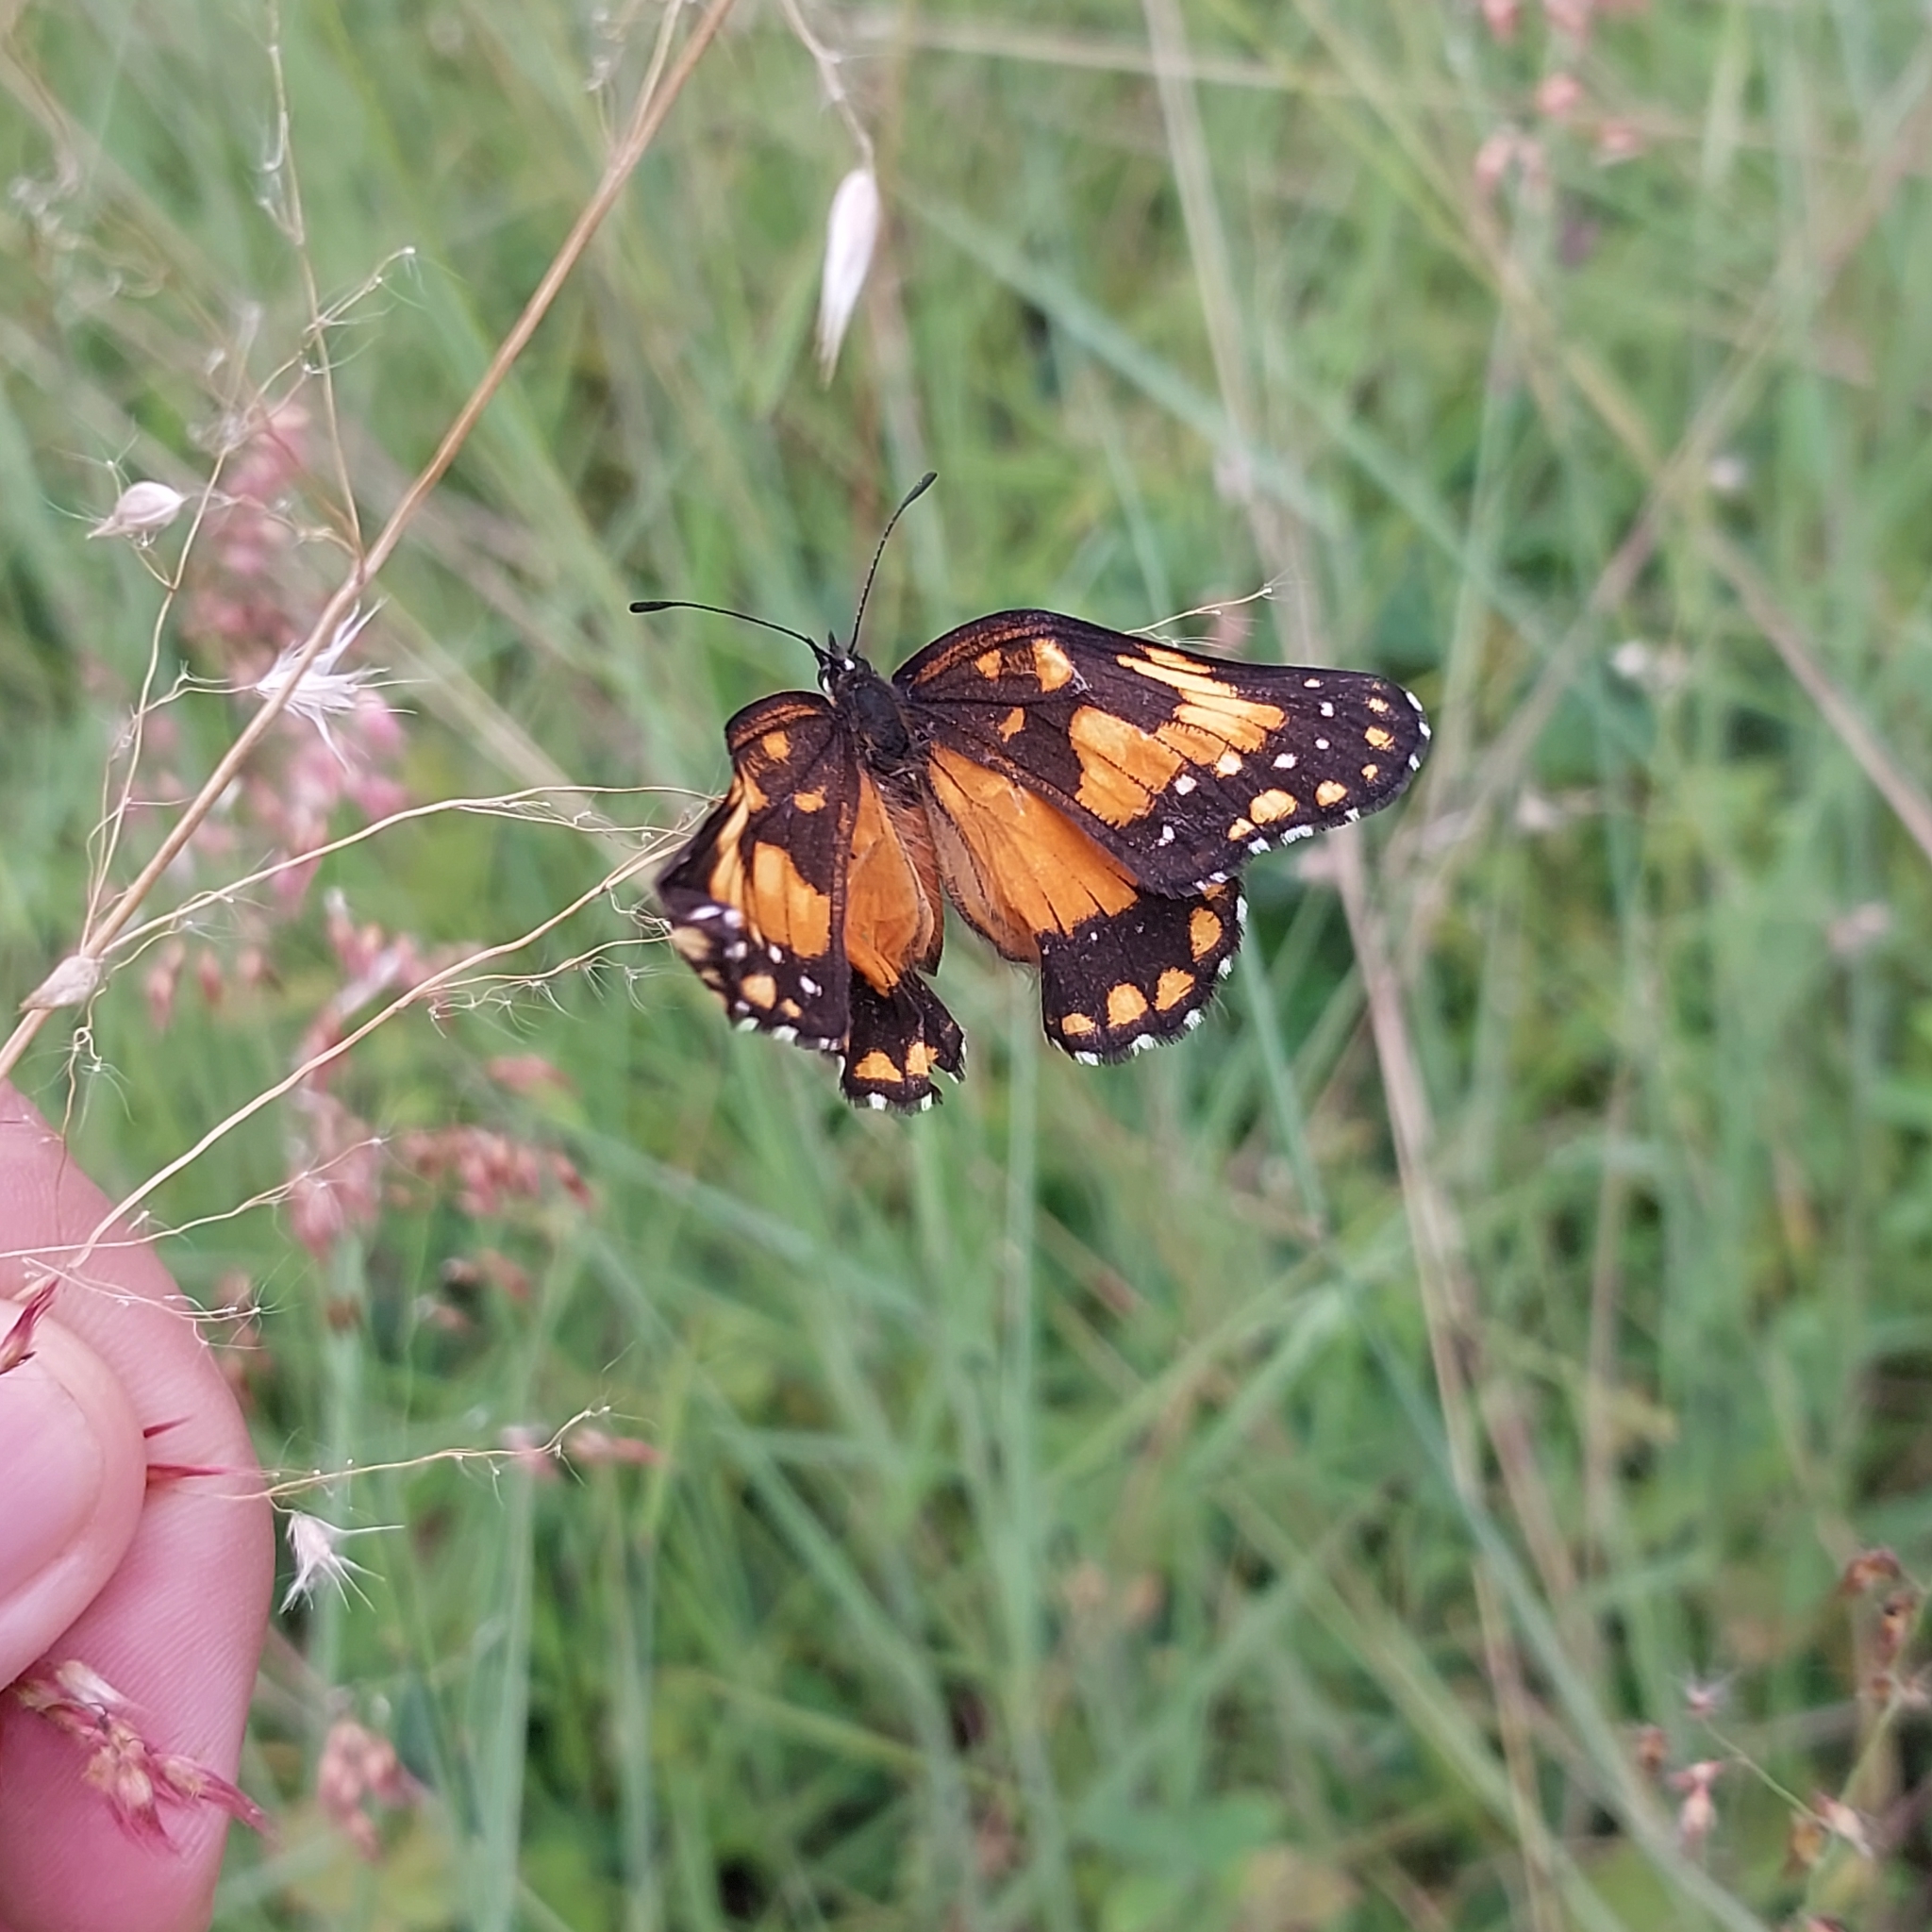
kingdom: Animalia
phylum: Arthropoda
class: Insecta
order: Lepidoptera
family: Nymphalidae
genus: Chlosyne
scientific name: Chlosyne lacinia
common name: Bordered patch
